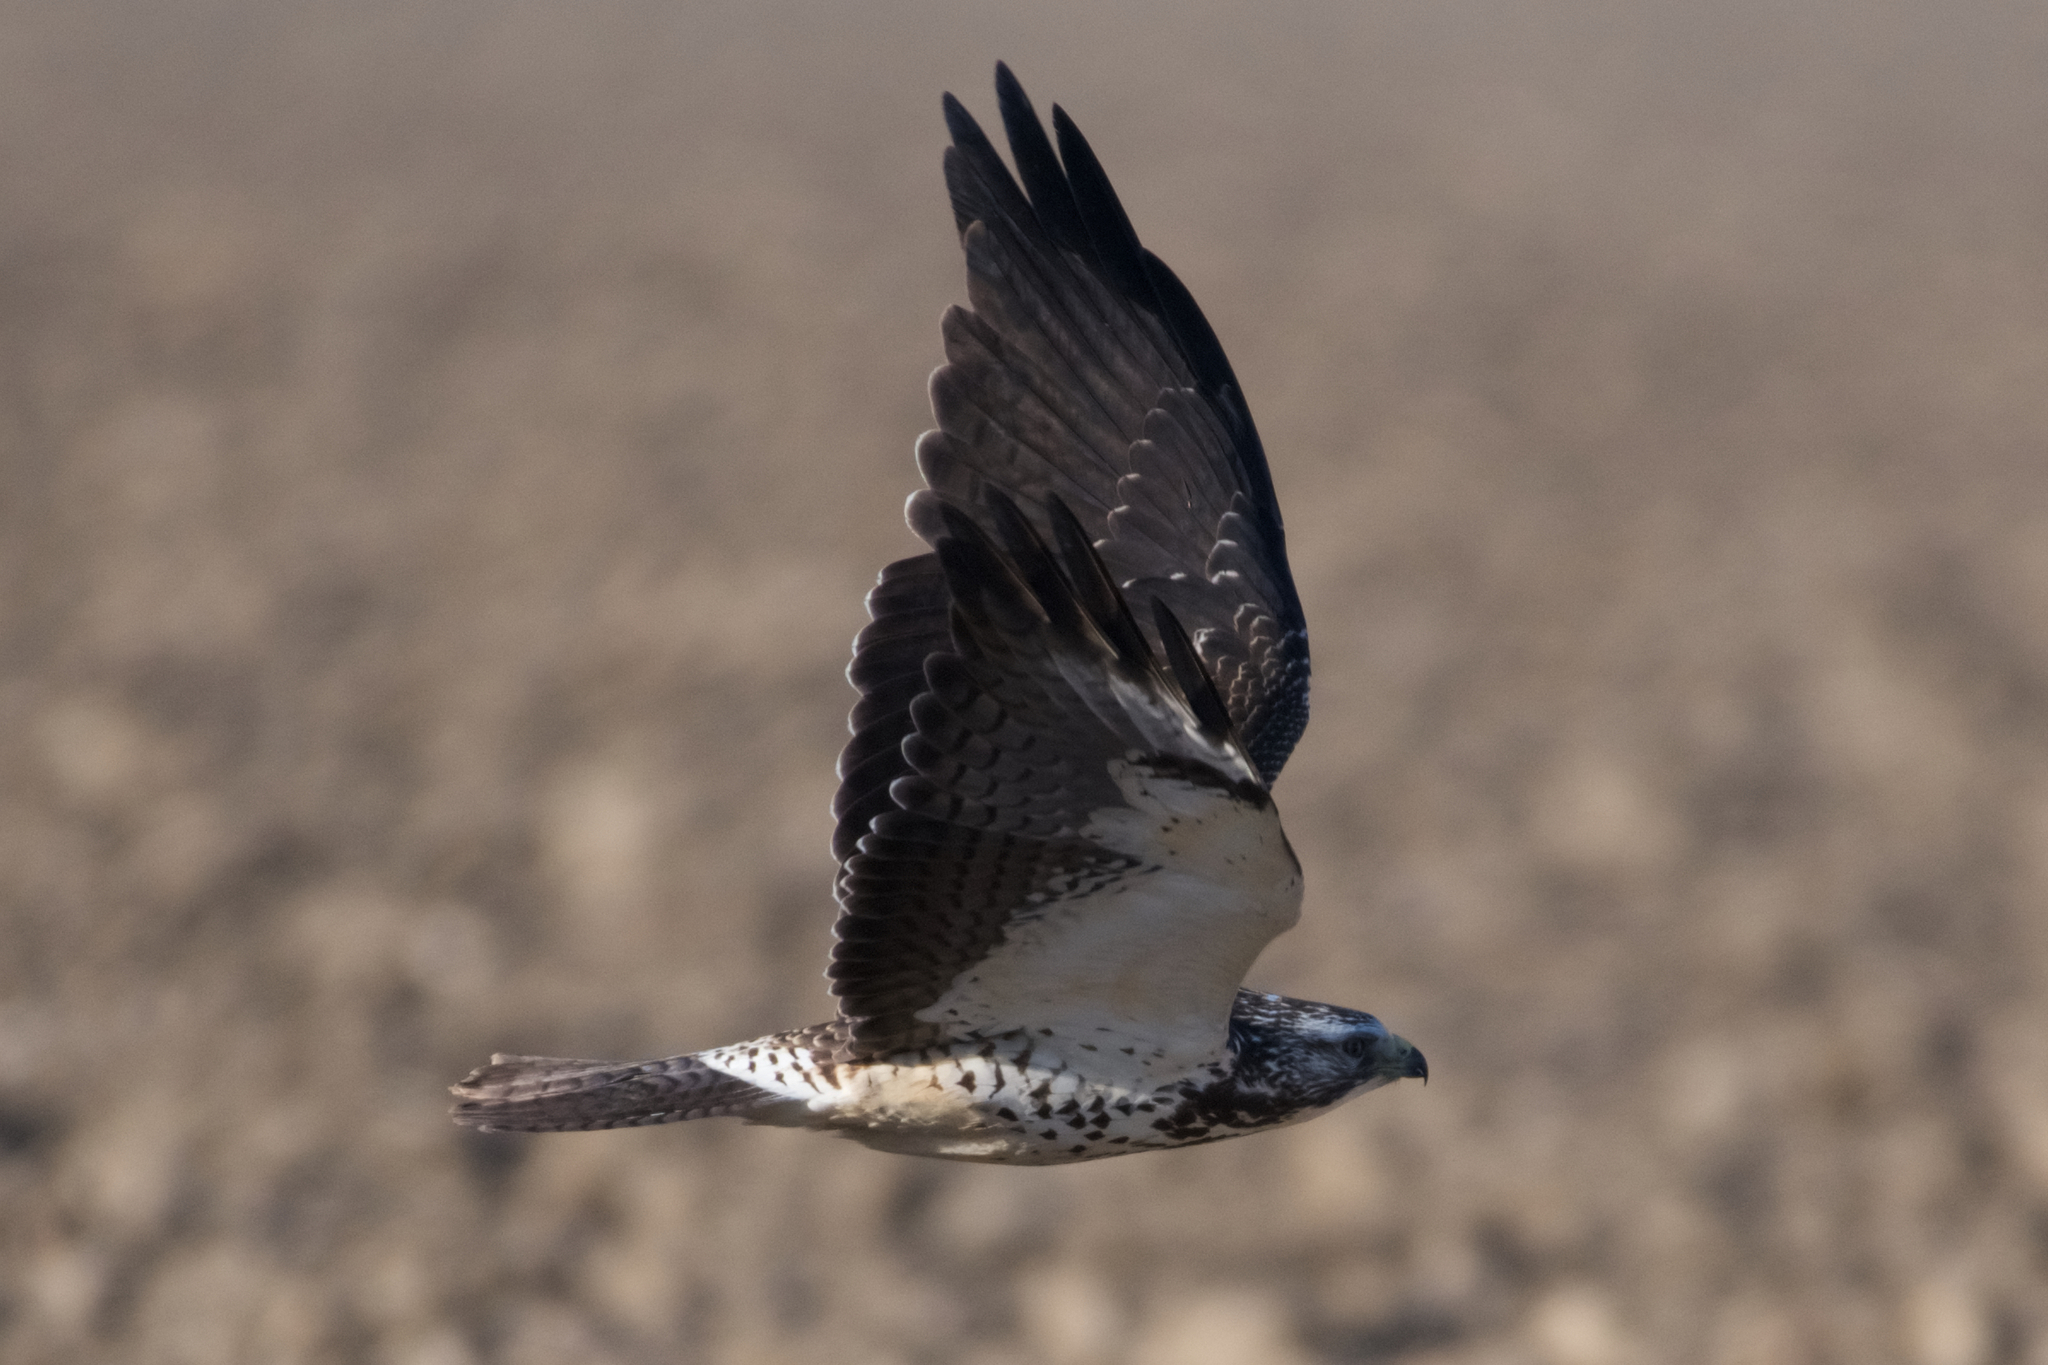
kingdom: Animalia
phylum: Chordata
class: Aves
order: Accipitriformes
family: Accipitridae
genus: Buteo
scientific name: Buteo swainsoni
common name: Swainson's hawk
